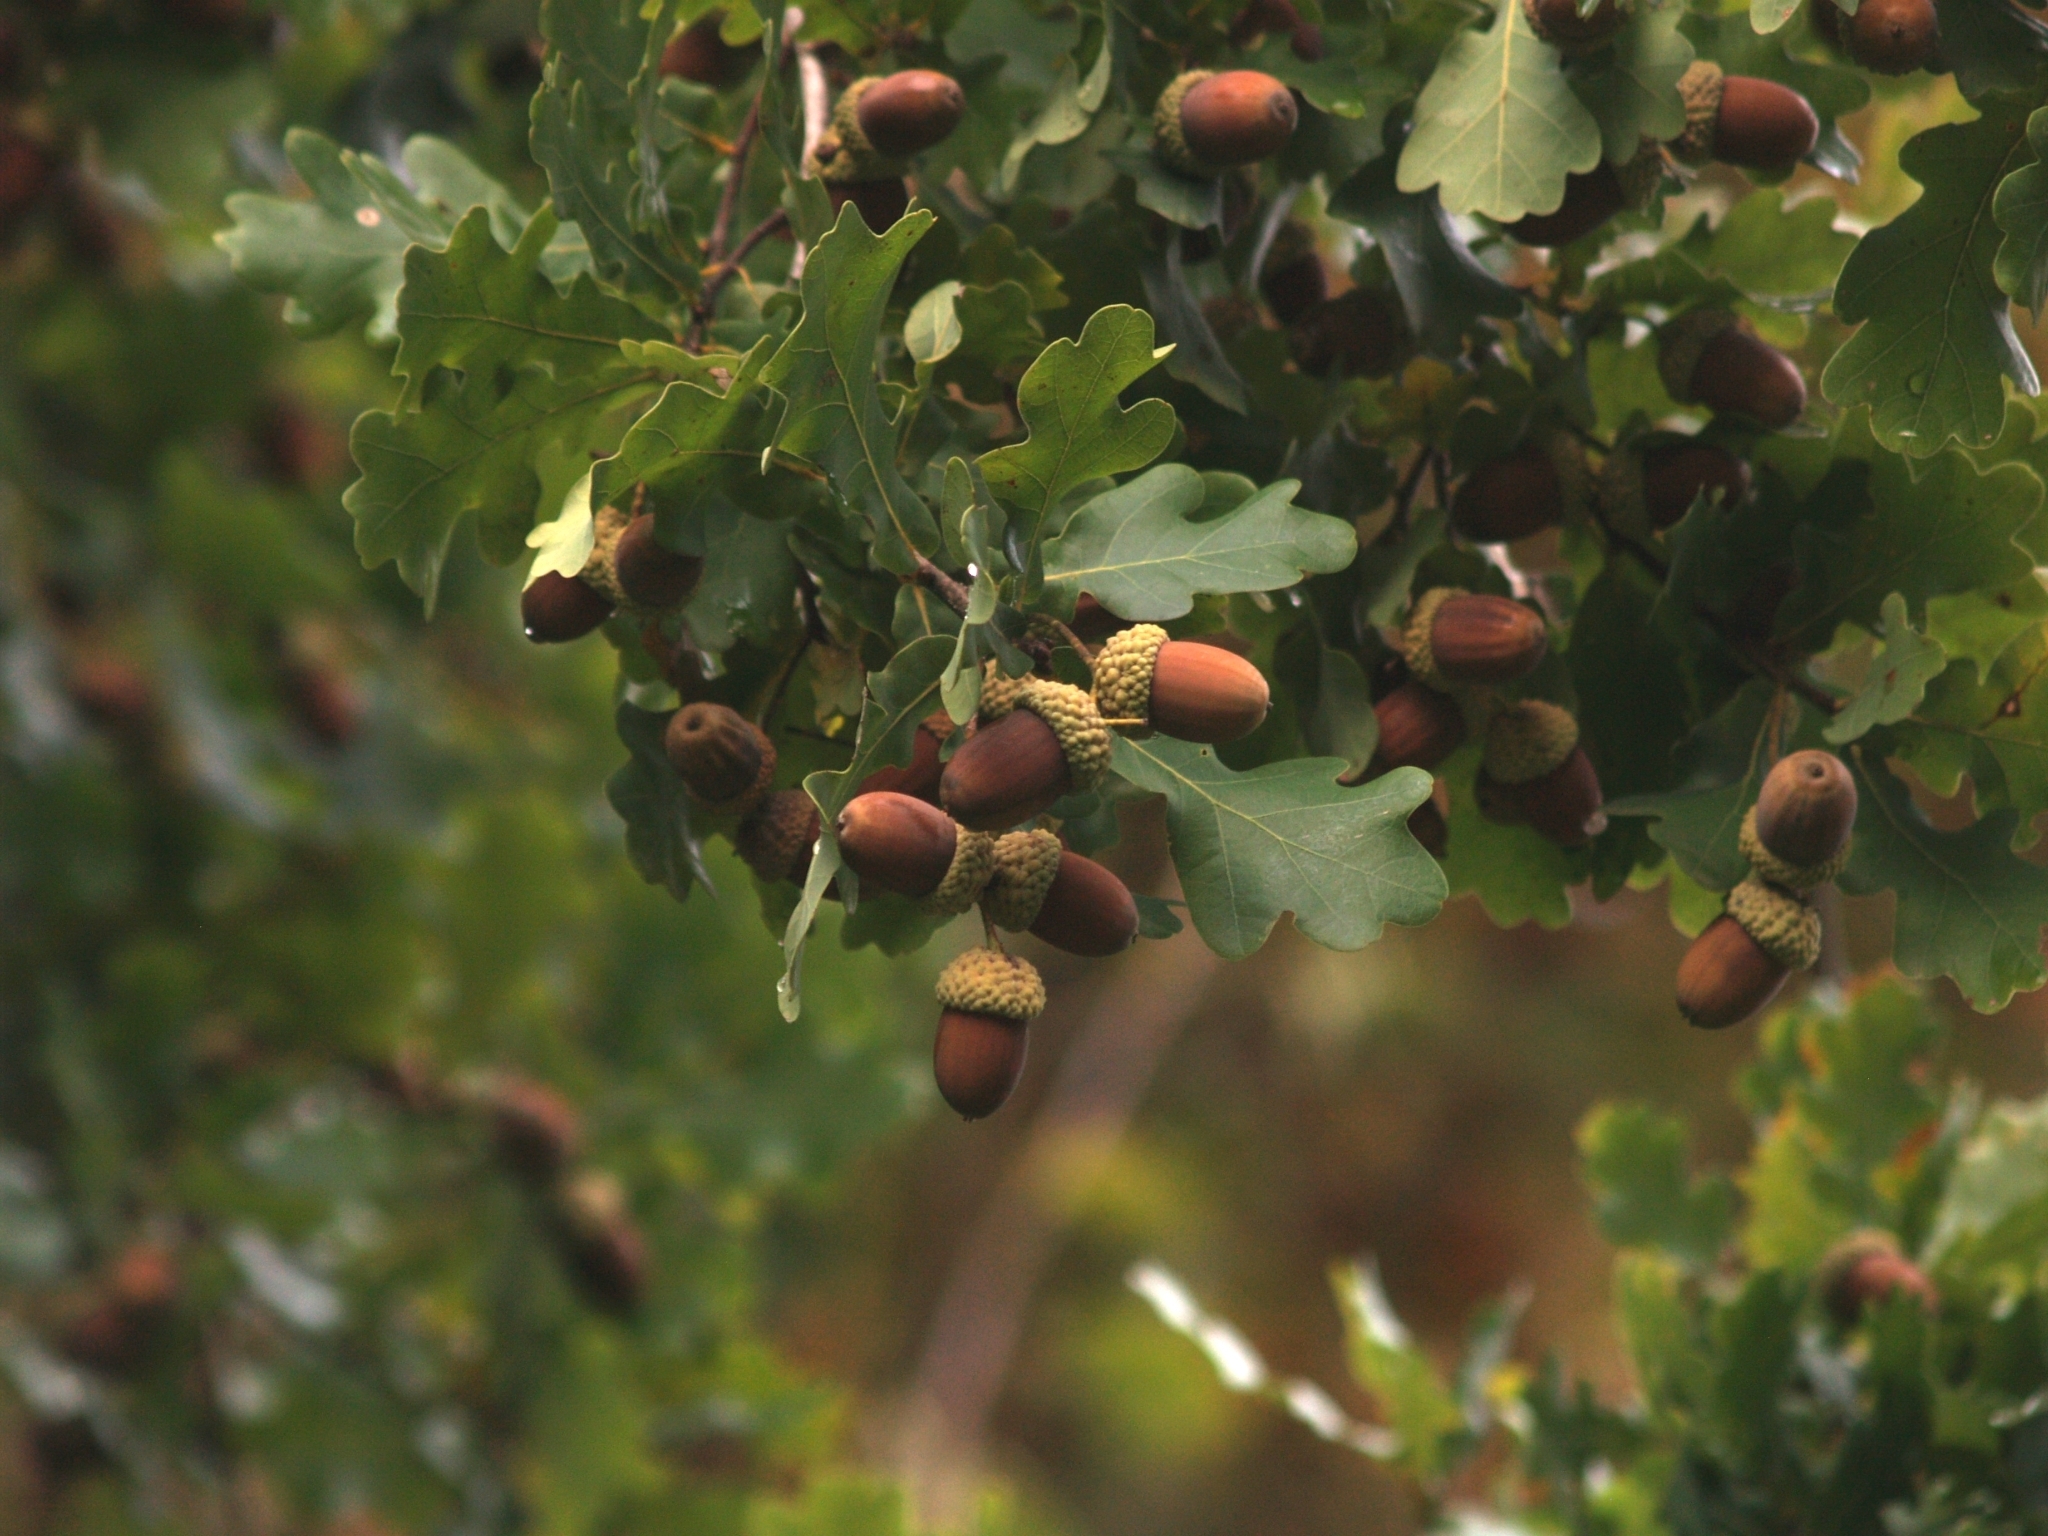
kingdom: Plantae
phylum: Tracheophyta
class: Magnoliopsida
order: Fagales
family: Fagaceae
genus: Quercus
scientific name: Quercus robur
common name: Pedunculate oak
